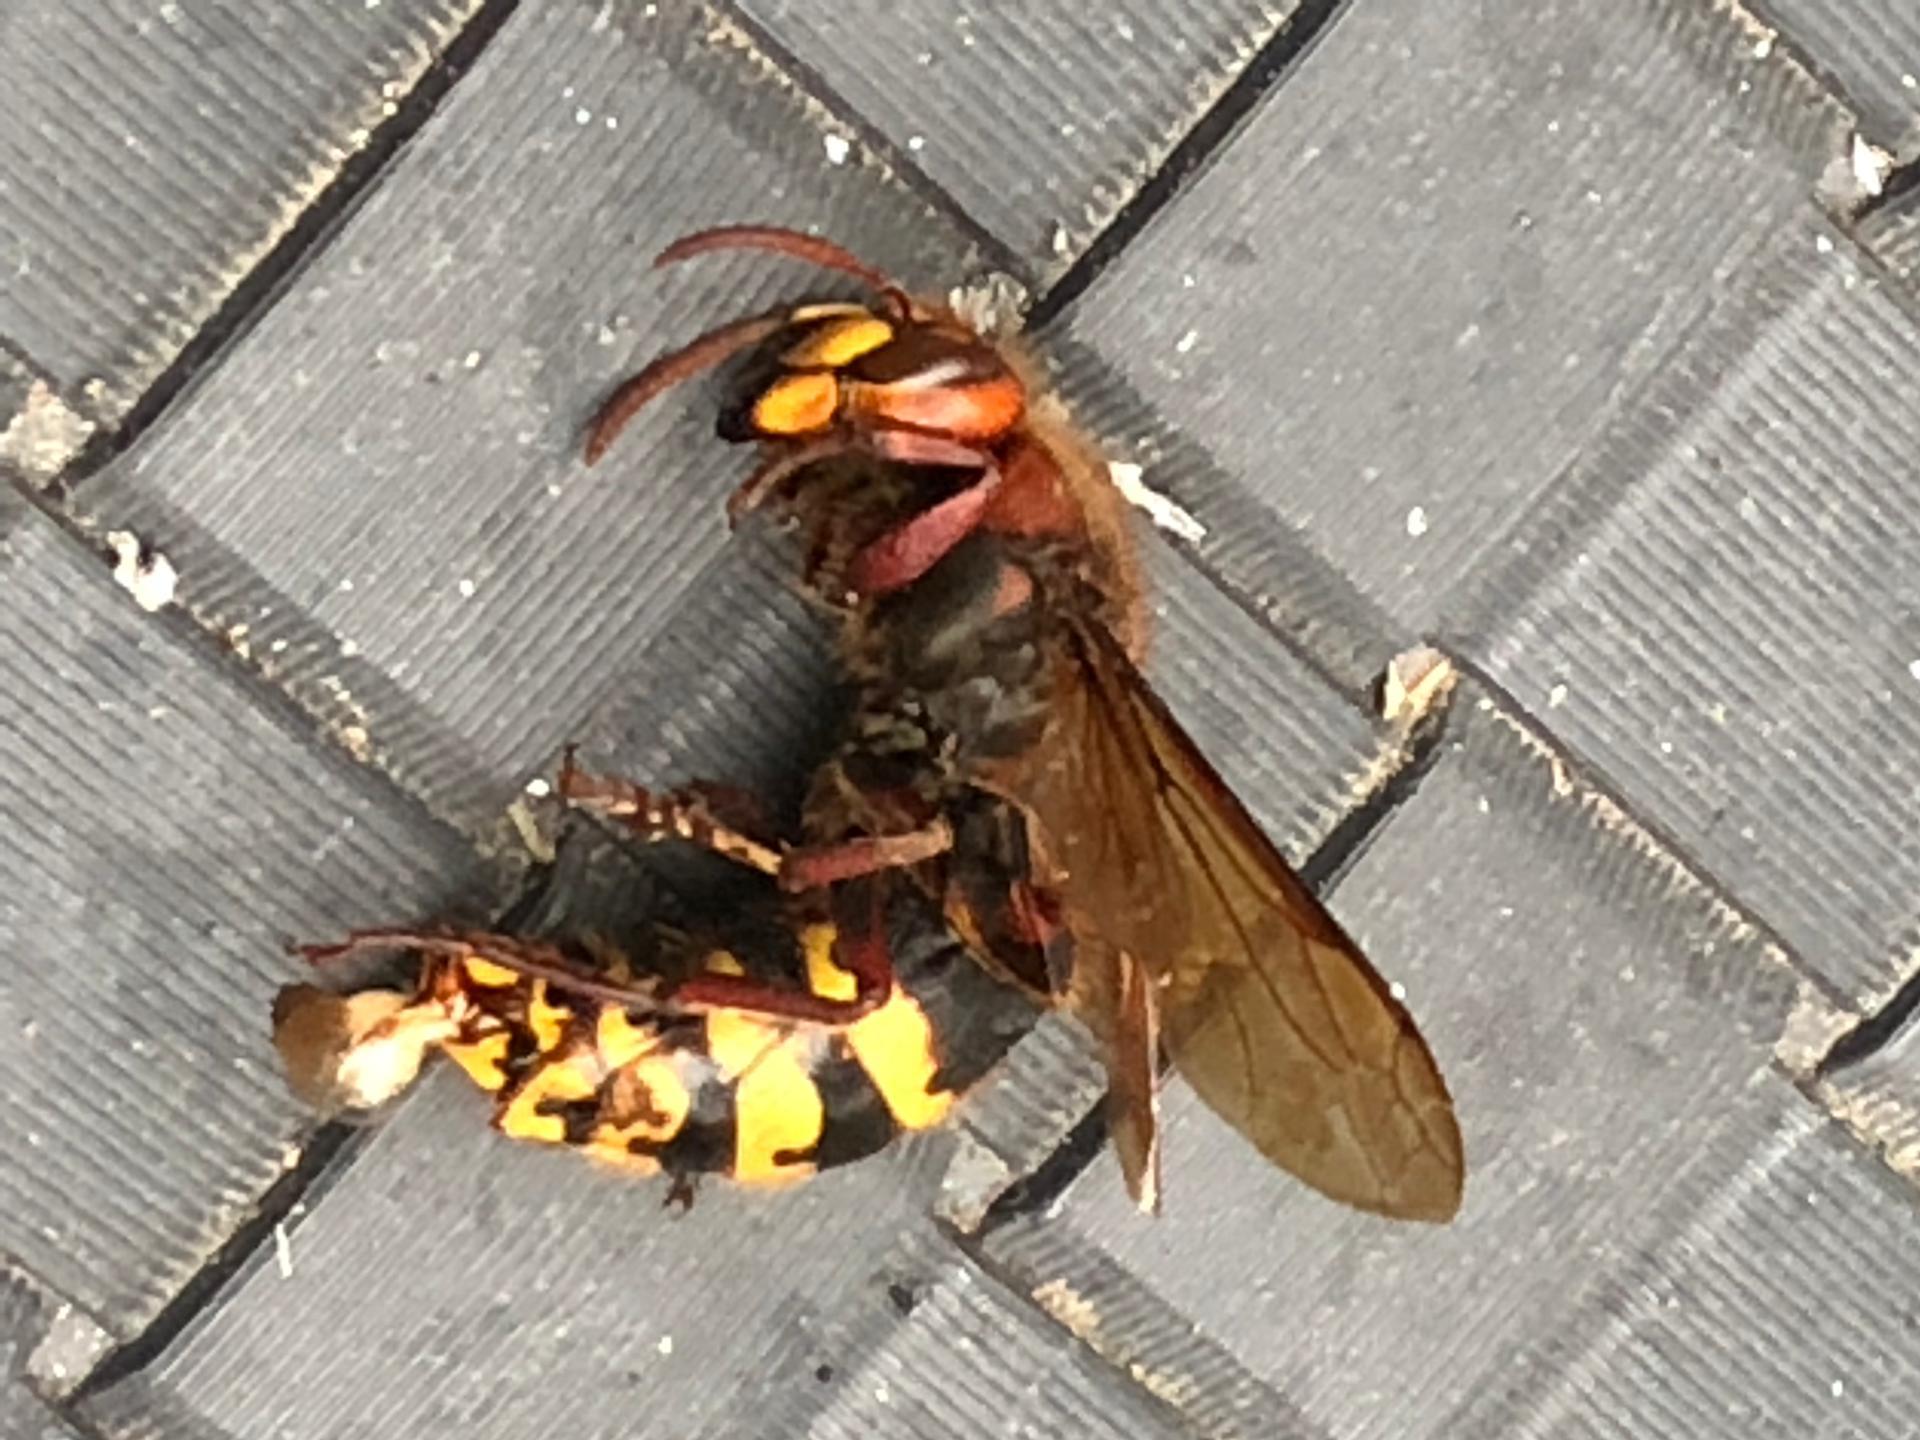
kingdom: Animalia
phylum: Arthropoda
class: Insecta
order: Hymenoptera
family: Vespidae
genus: Vespa
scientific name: Vespa crabro
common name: Hornet
